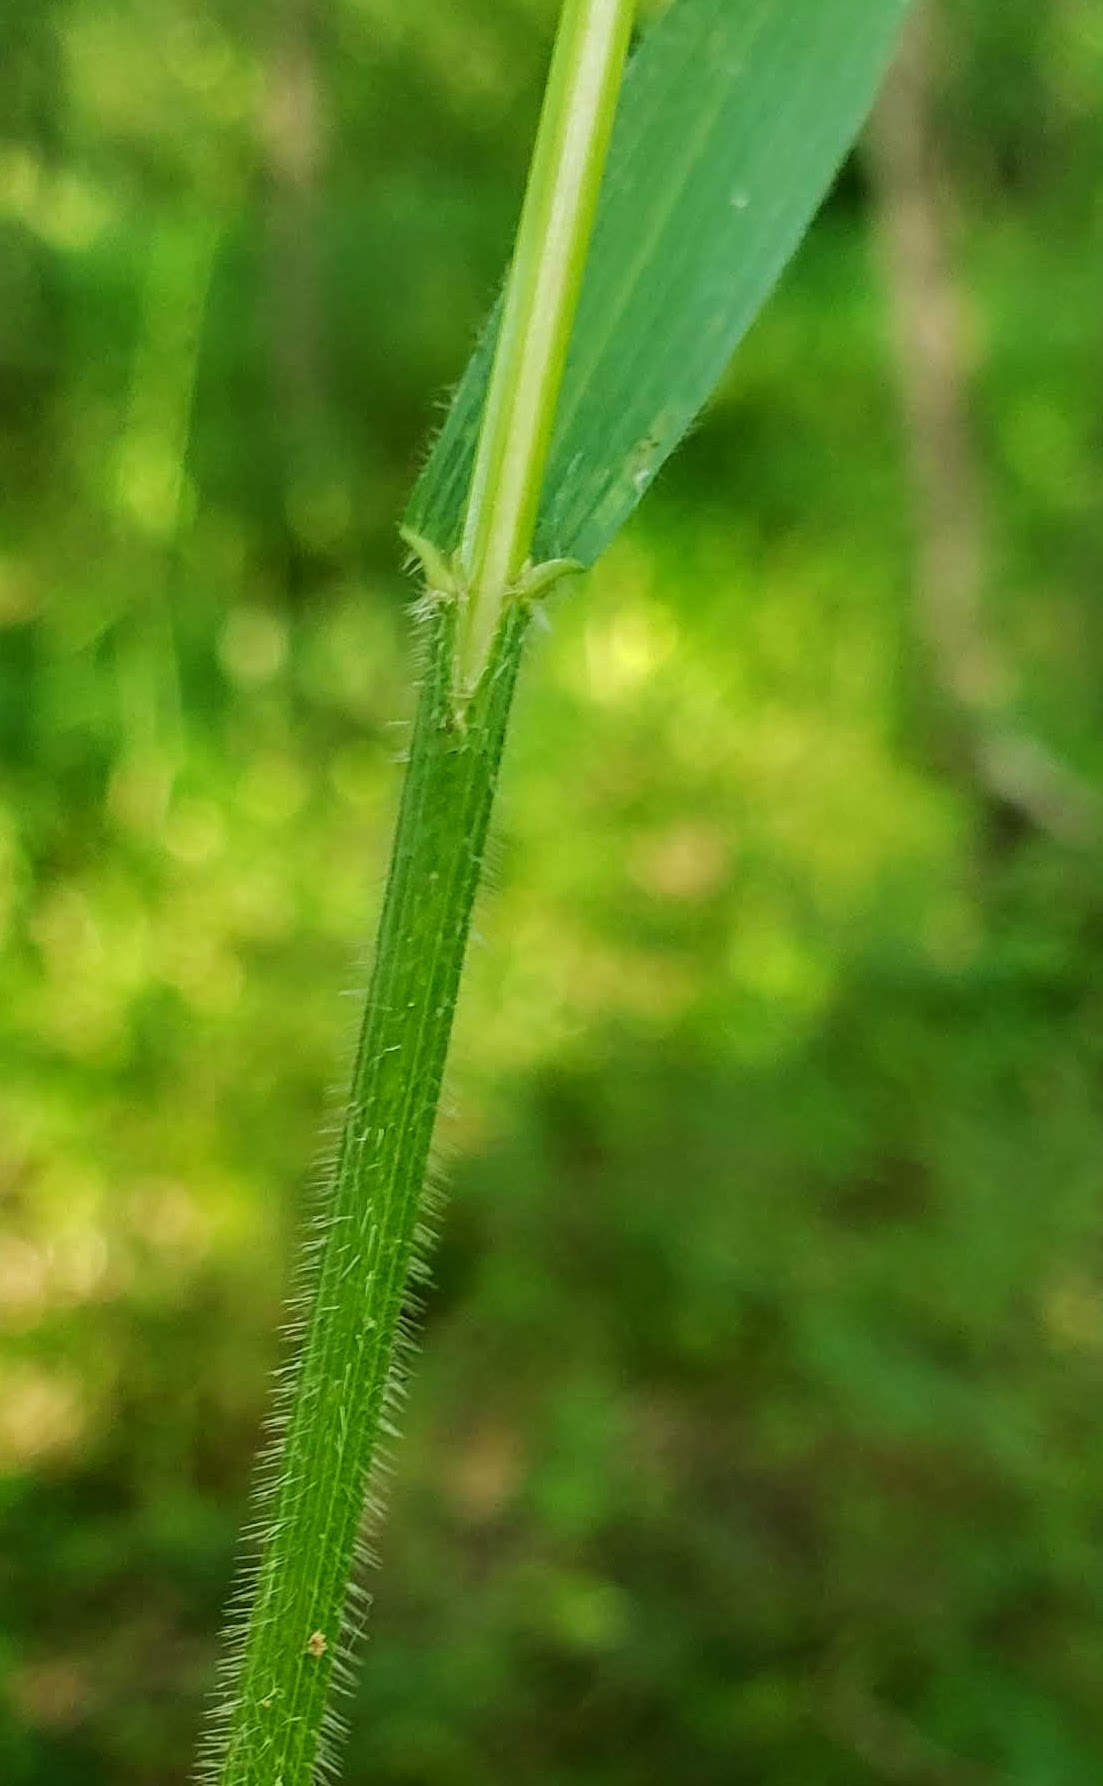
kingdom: Plantae
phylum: Tracheophyta
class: Liliopsida
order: Poales
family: Poaceae
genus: Bromus
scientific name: Bromus pubescens
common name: Hairy wood brome grass
